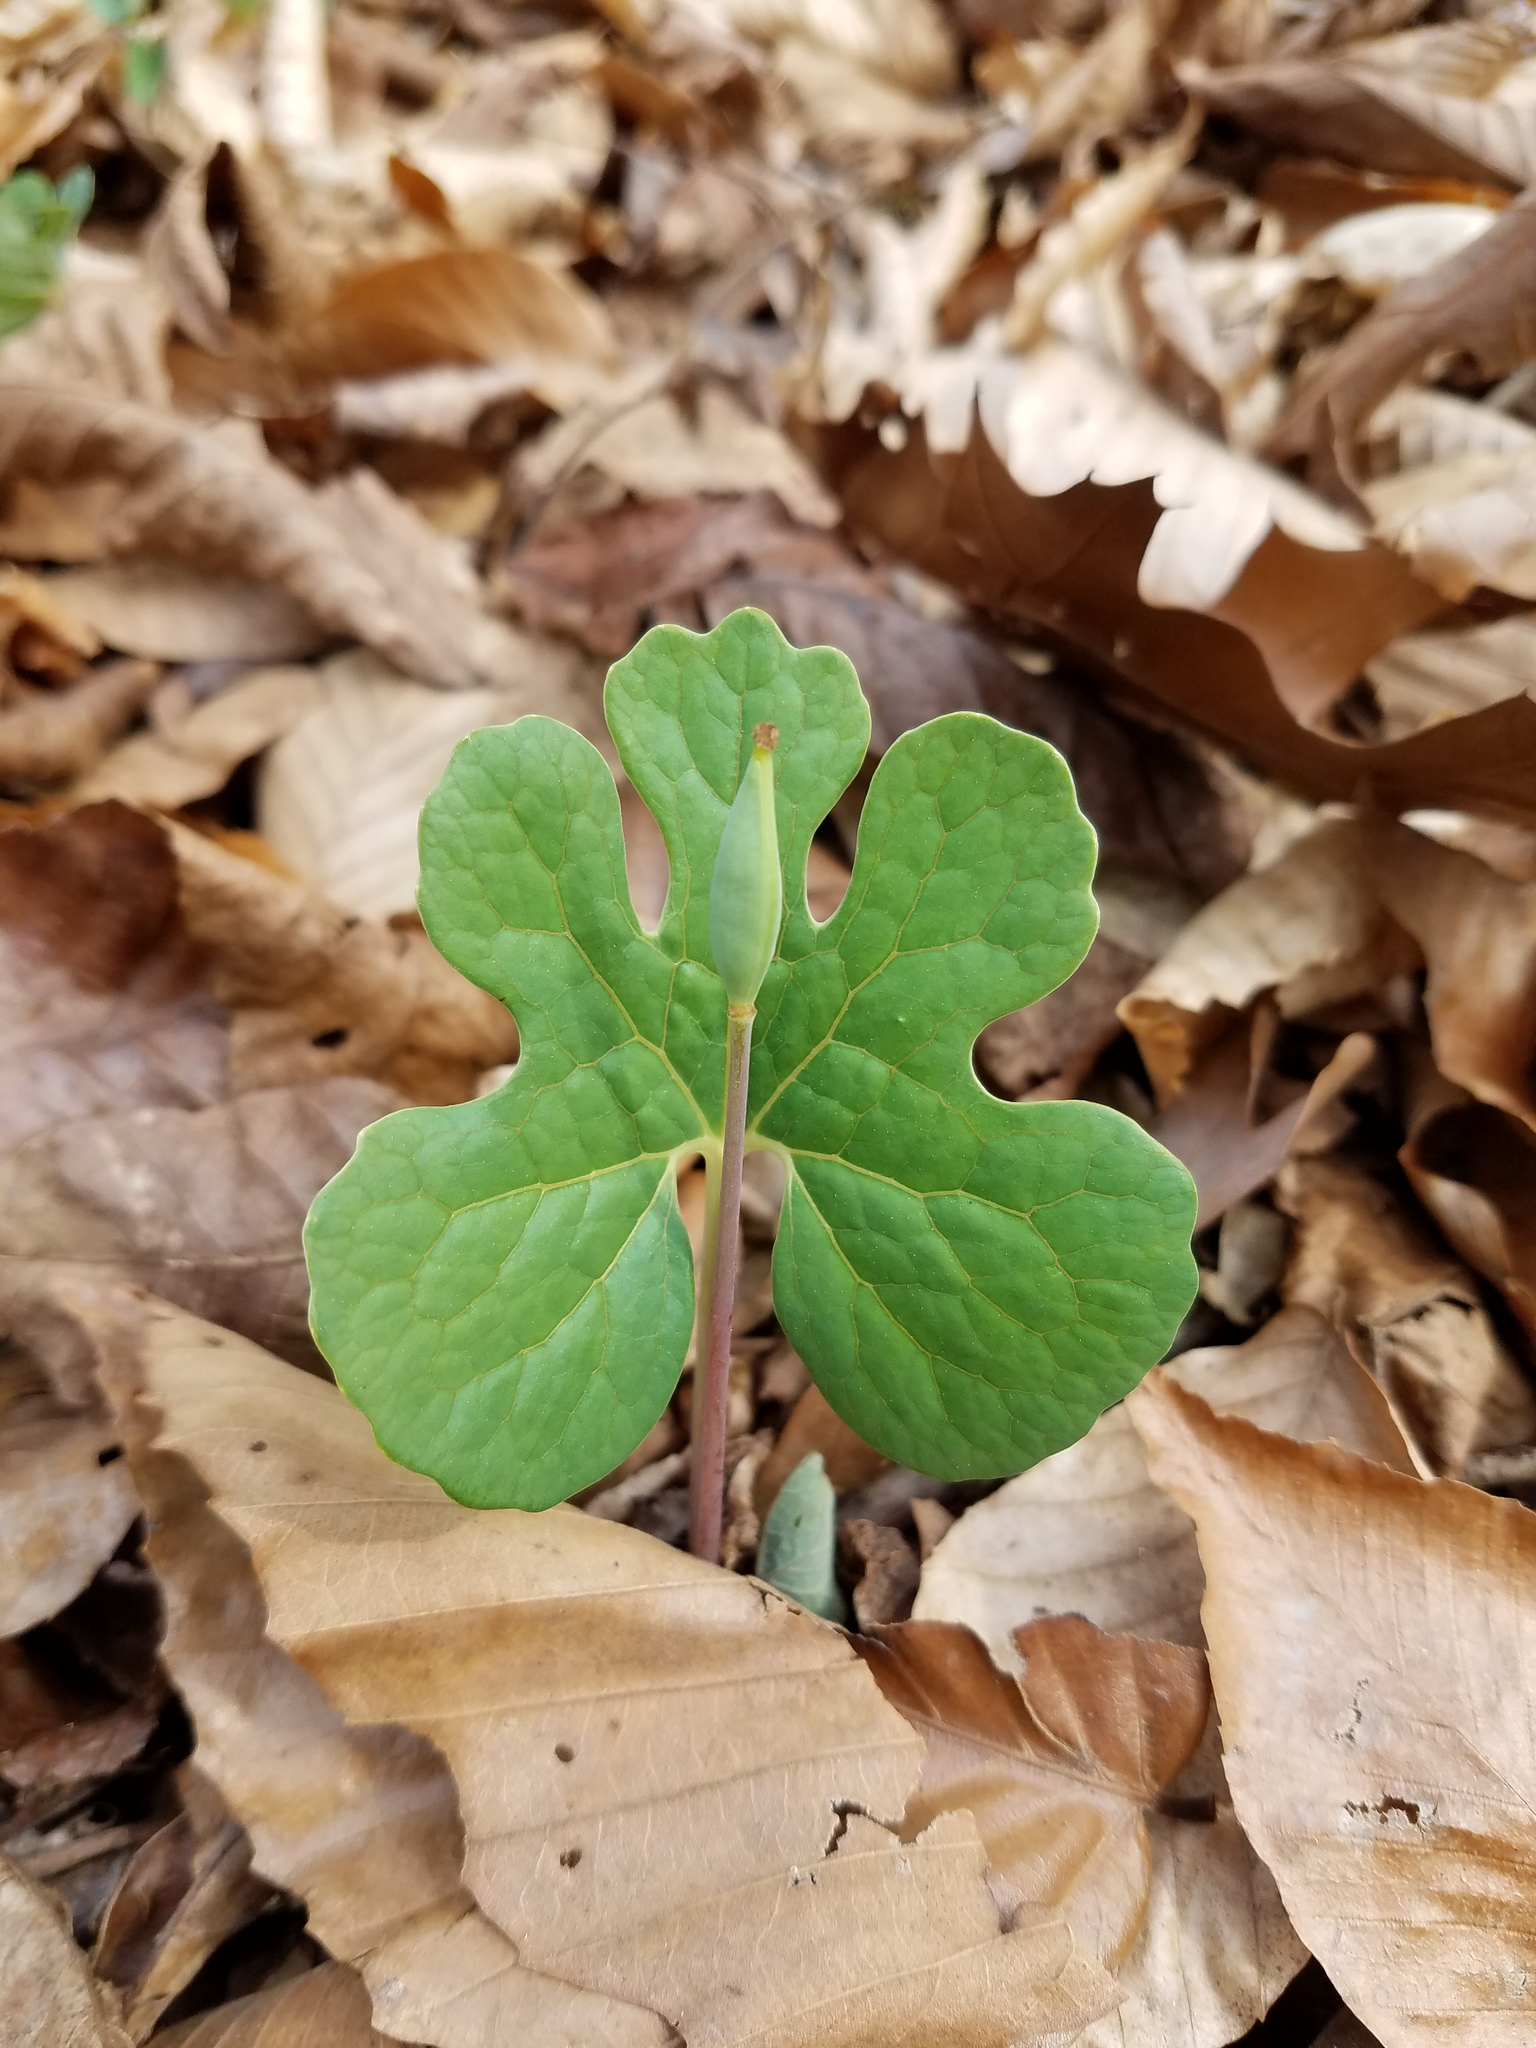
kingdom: Plantae
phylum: Tracheophyta
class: Magnoliopsida
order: Ranunculales
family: Papaveraceae
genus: Sanguinaria
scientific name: Sanguinaria canadensis
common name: Bloodroot
